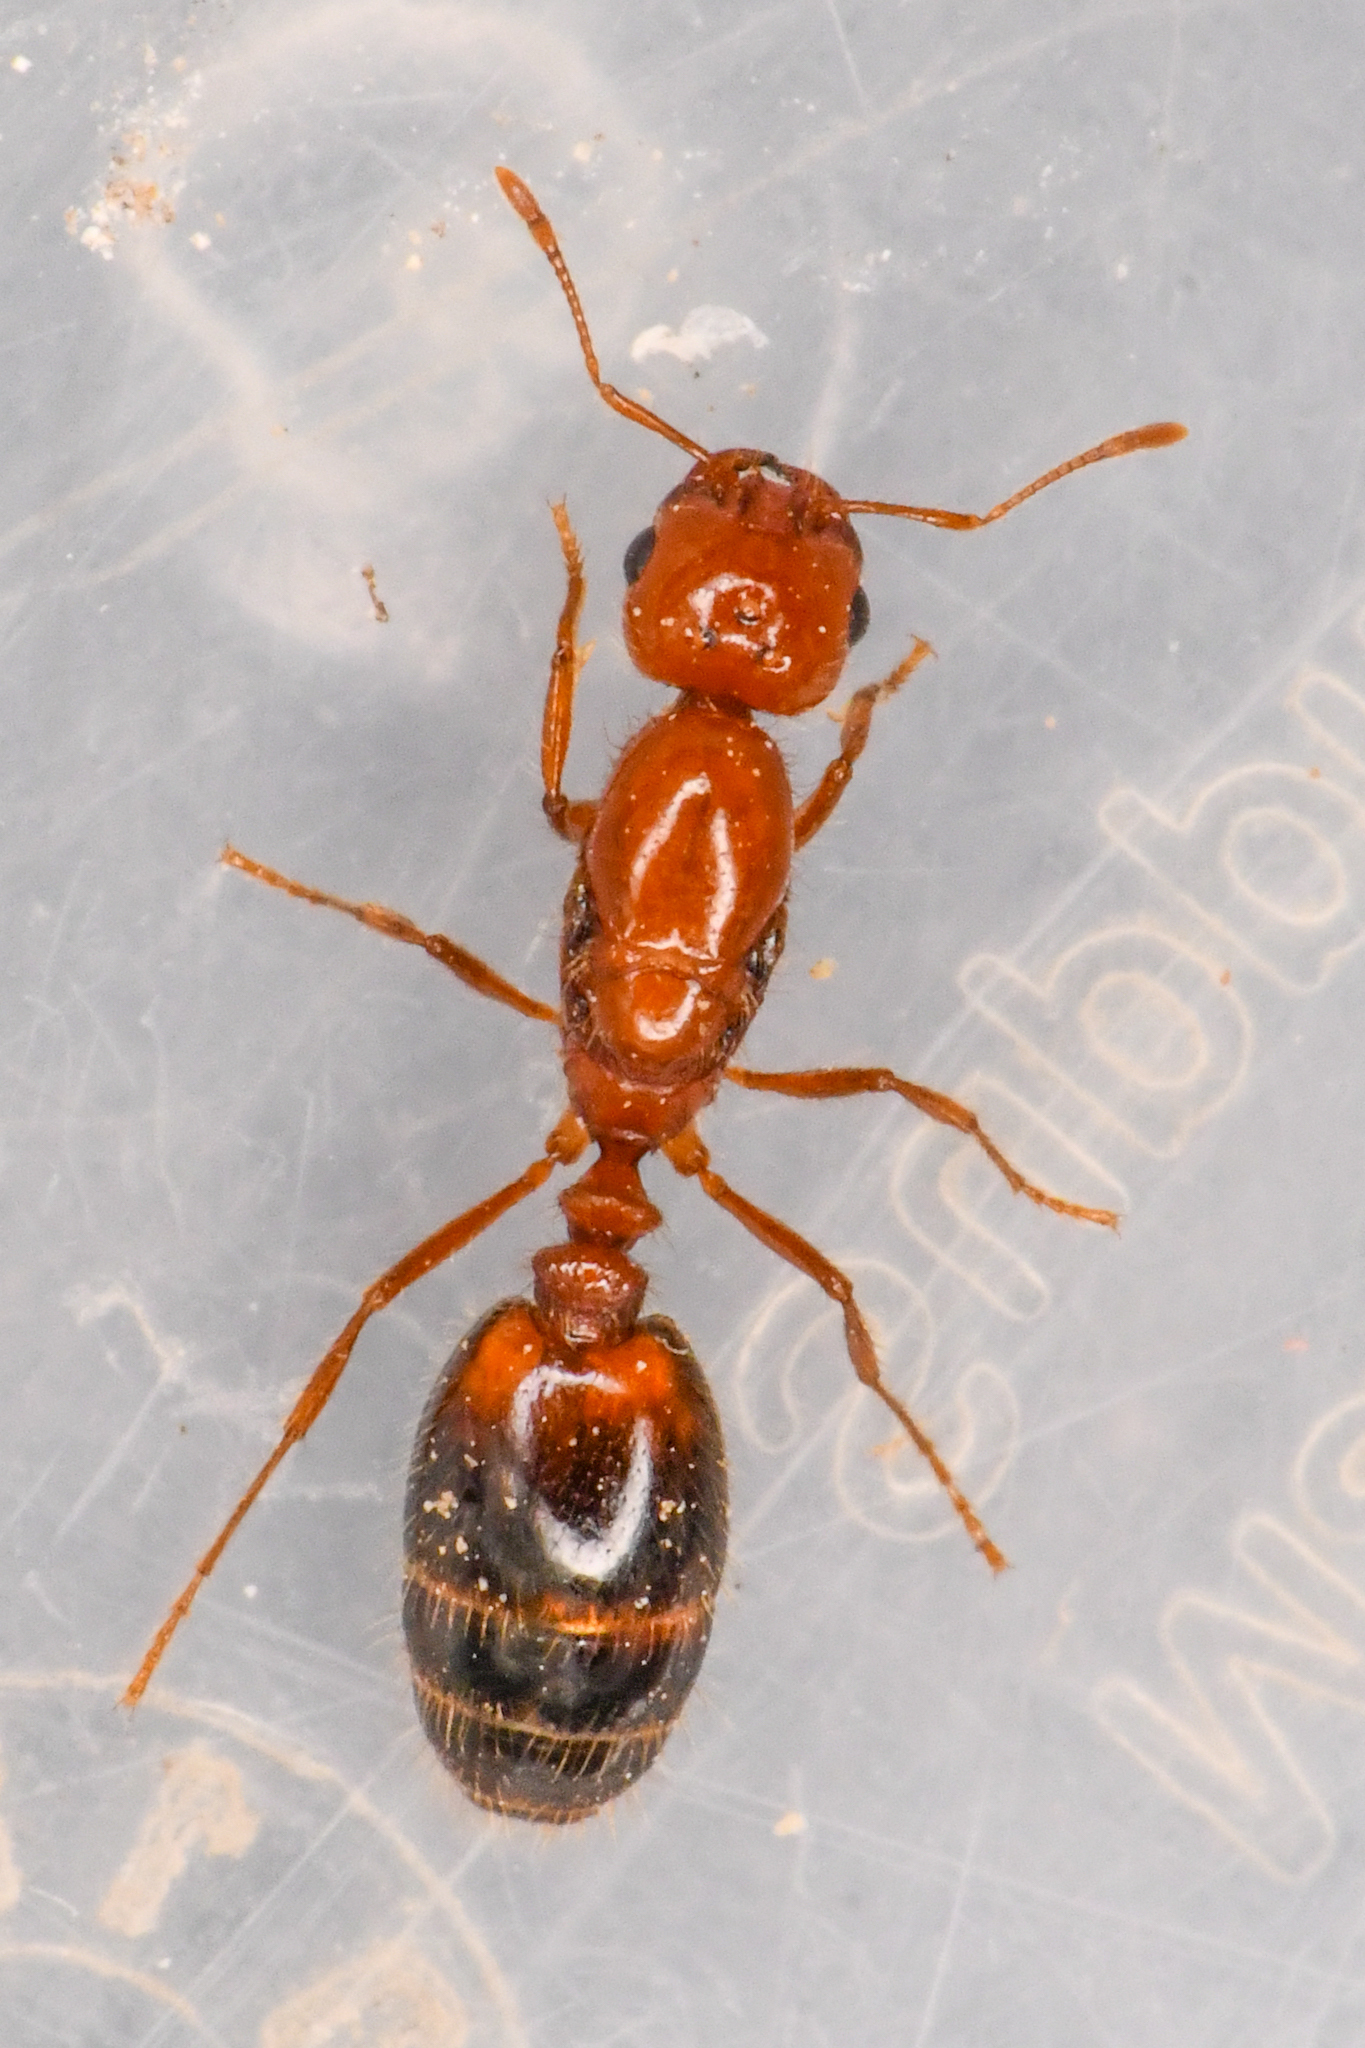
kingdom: Animalia
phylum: Arthropoda
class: Insecta
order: Hymenoptera
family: Formicidae
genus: Solenopsis
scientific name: Solenopsis xyloni
